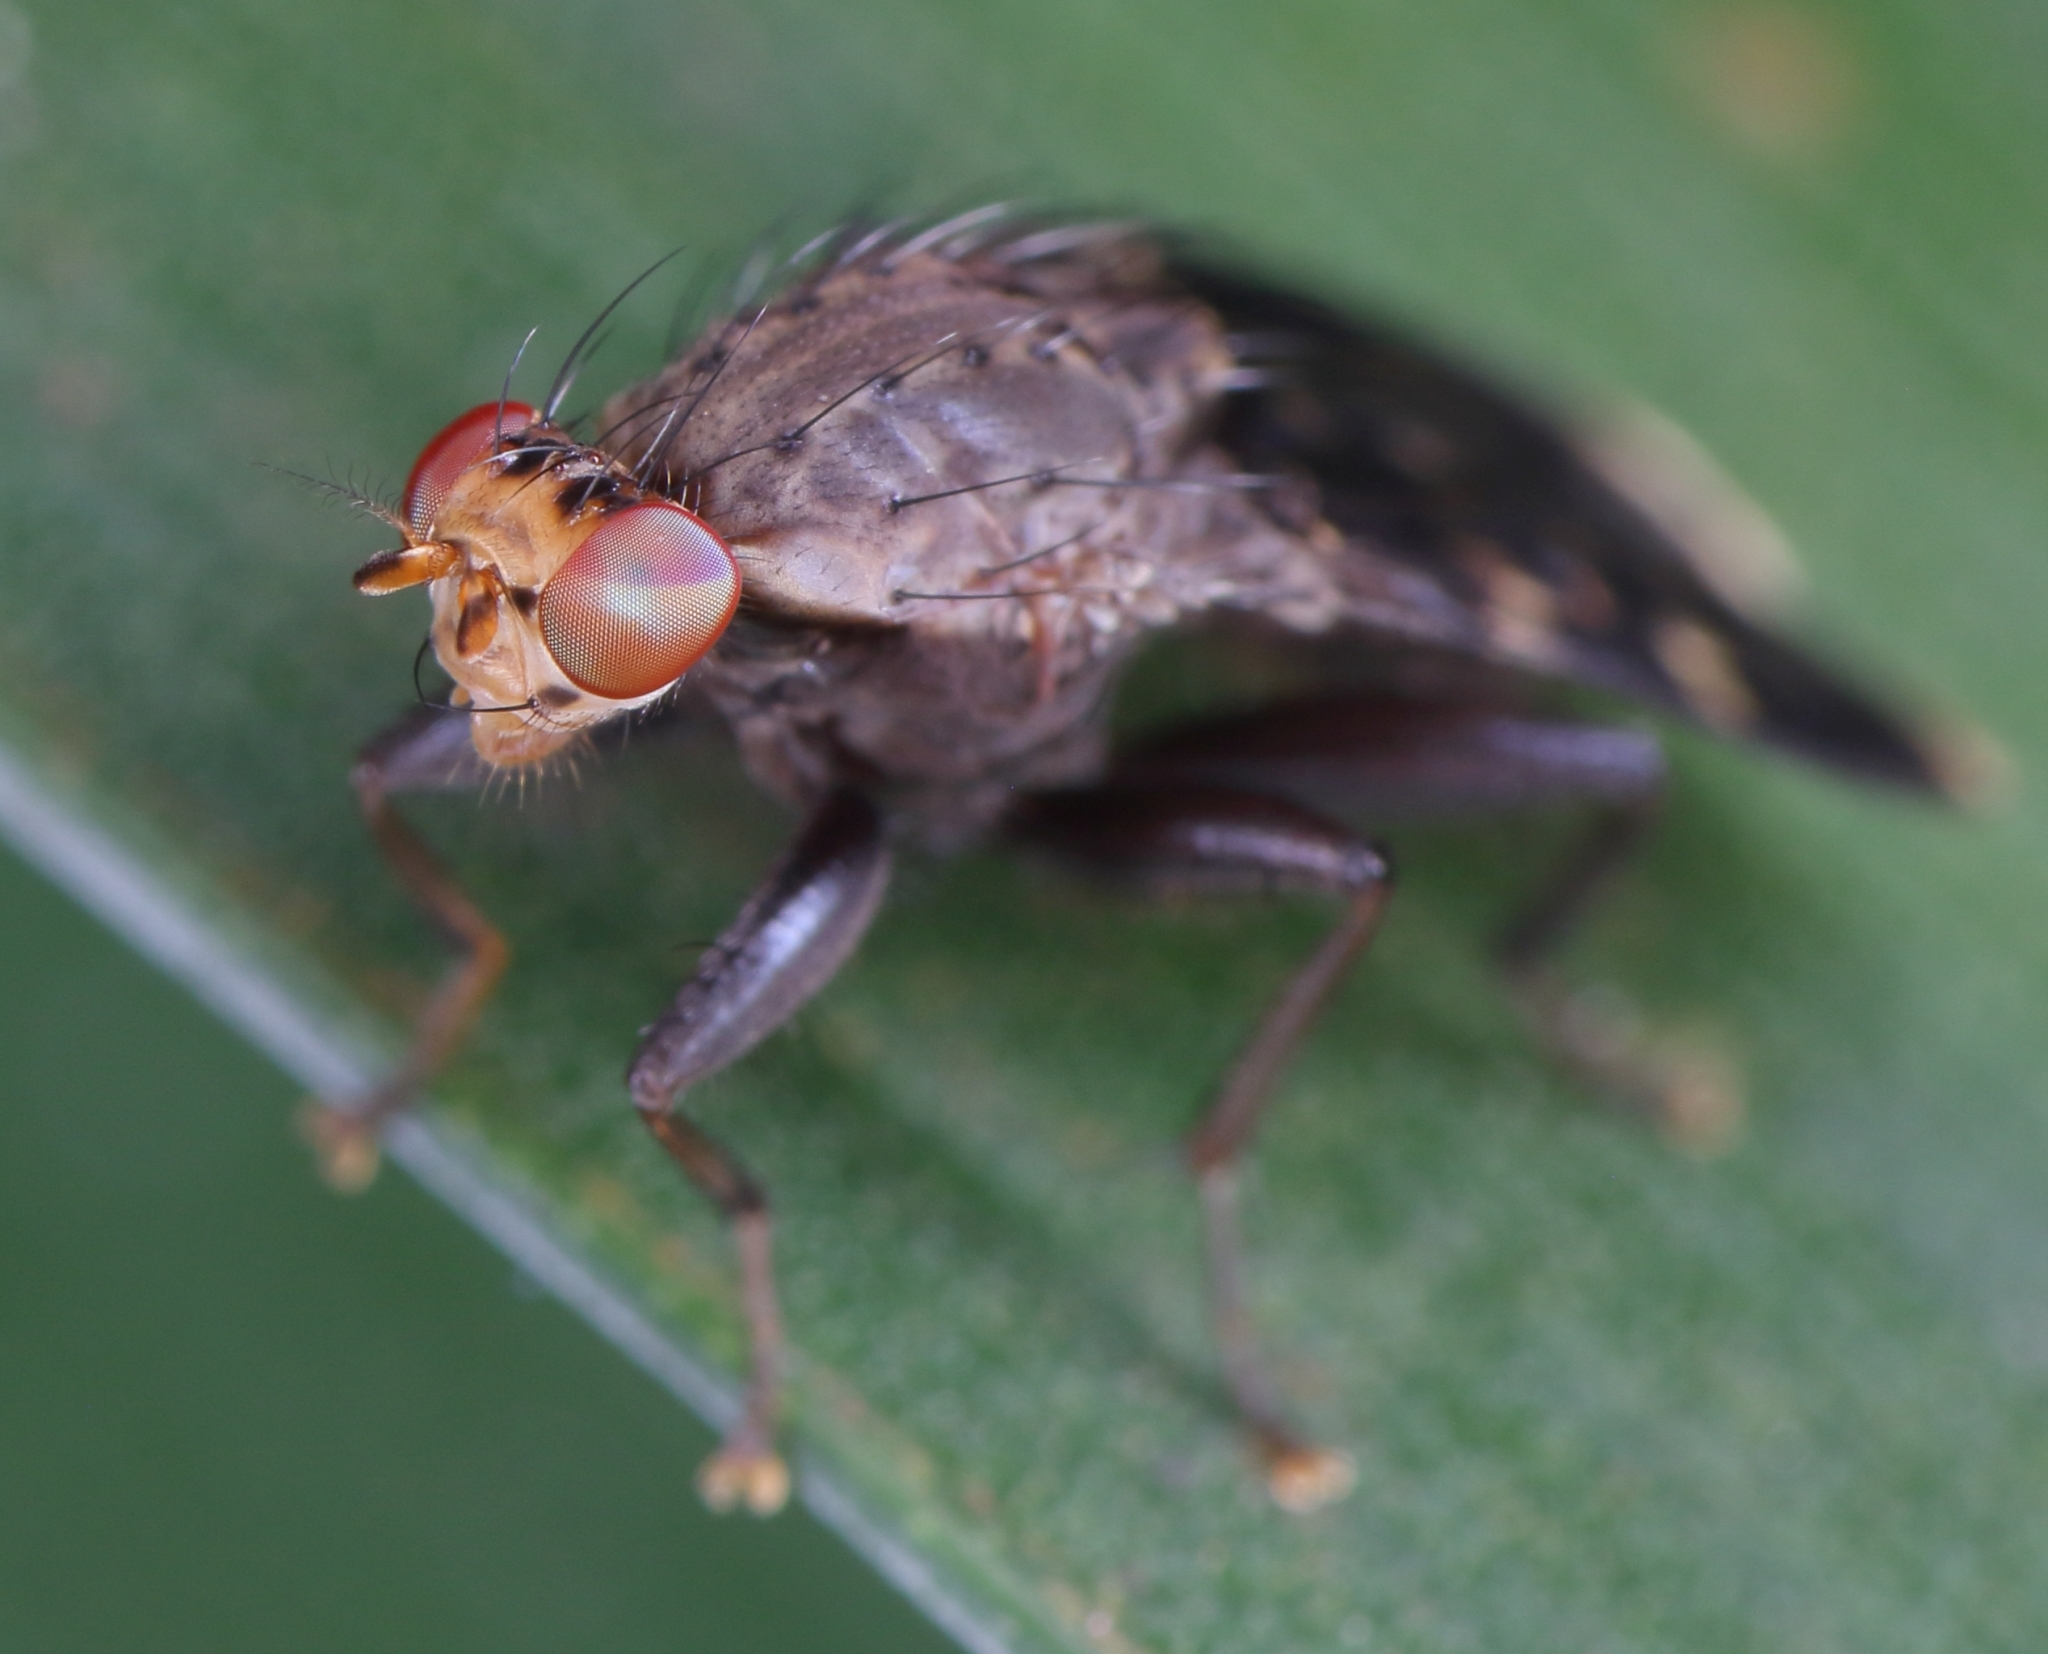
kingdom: Animalia
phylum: Arthropoda
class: Insecta
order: Diptera
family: Heleomyzidae
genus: Suillia
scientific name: Suillia picta
